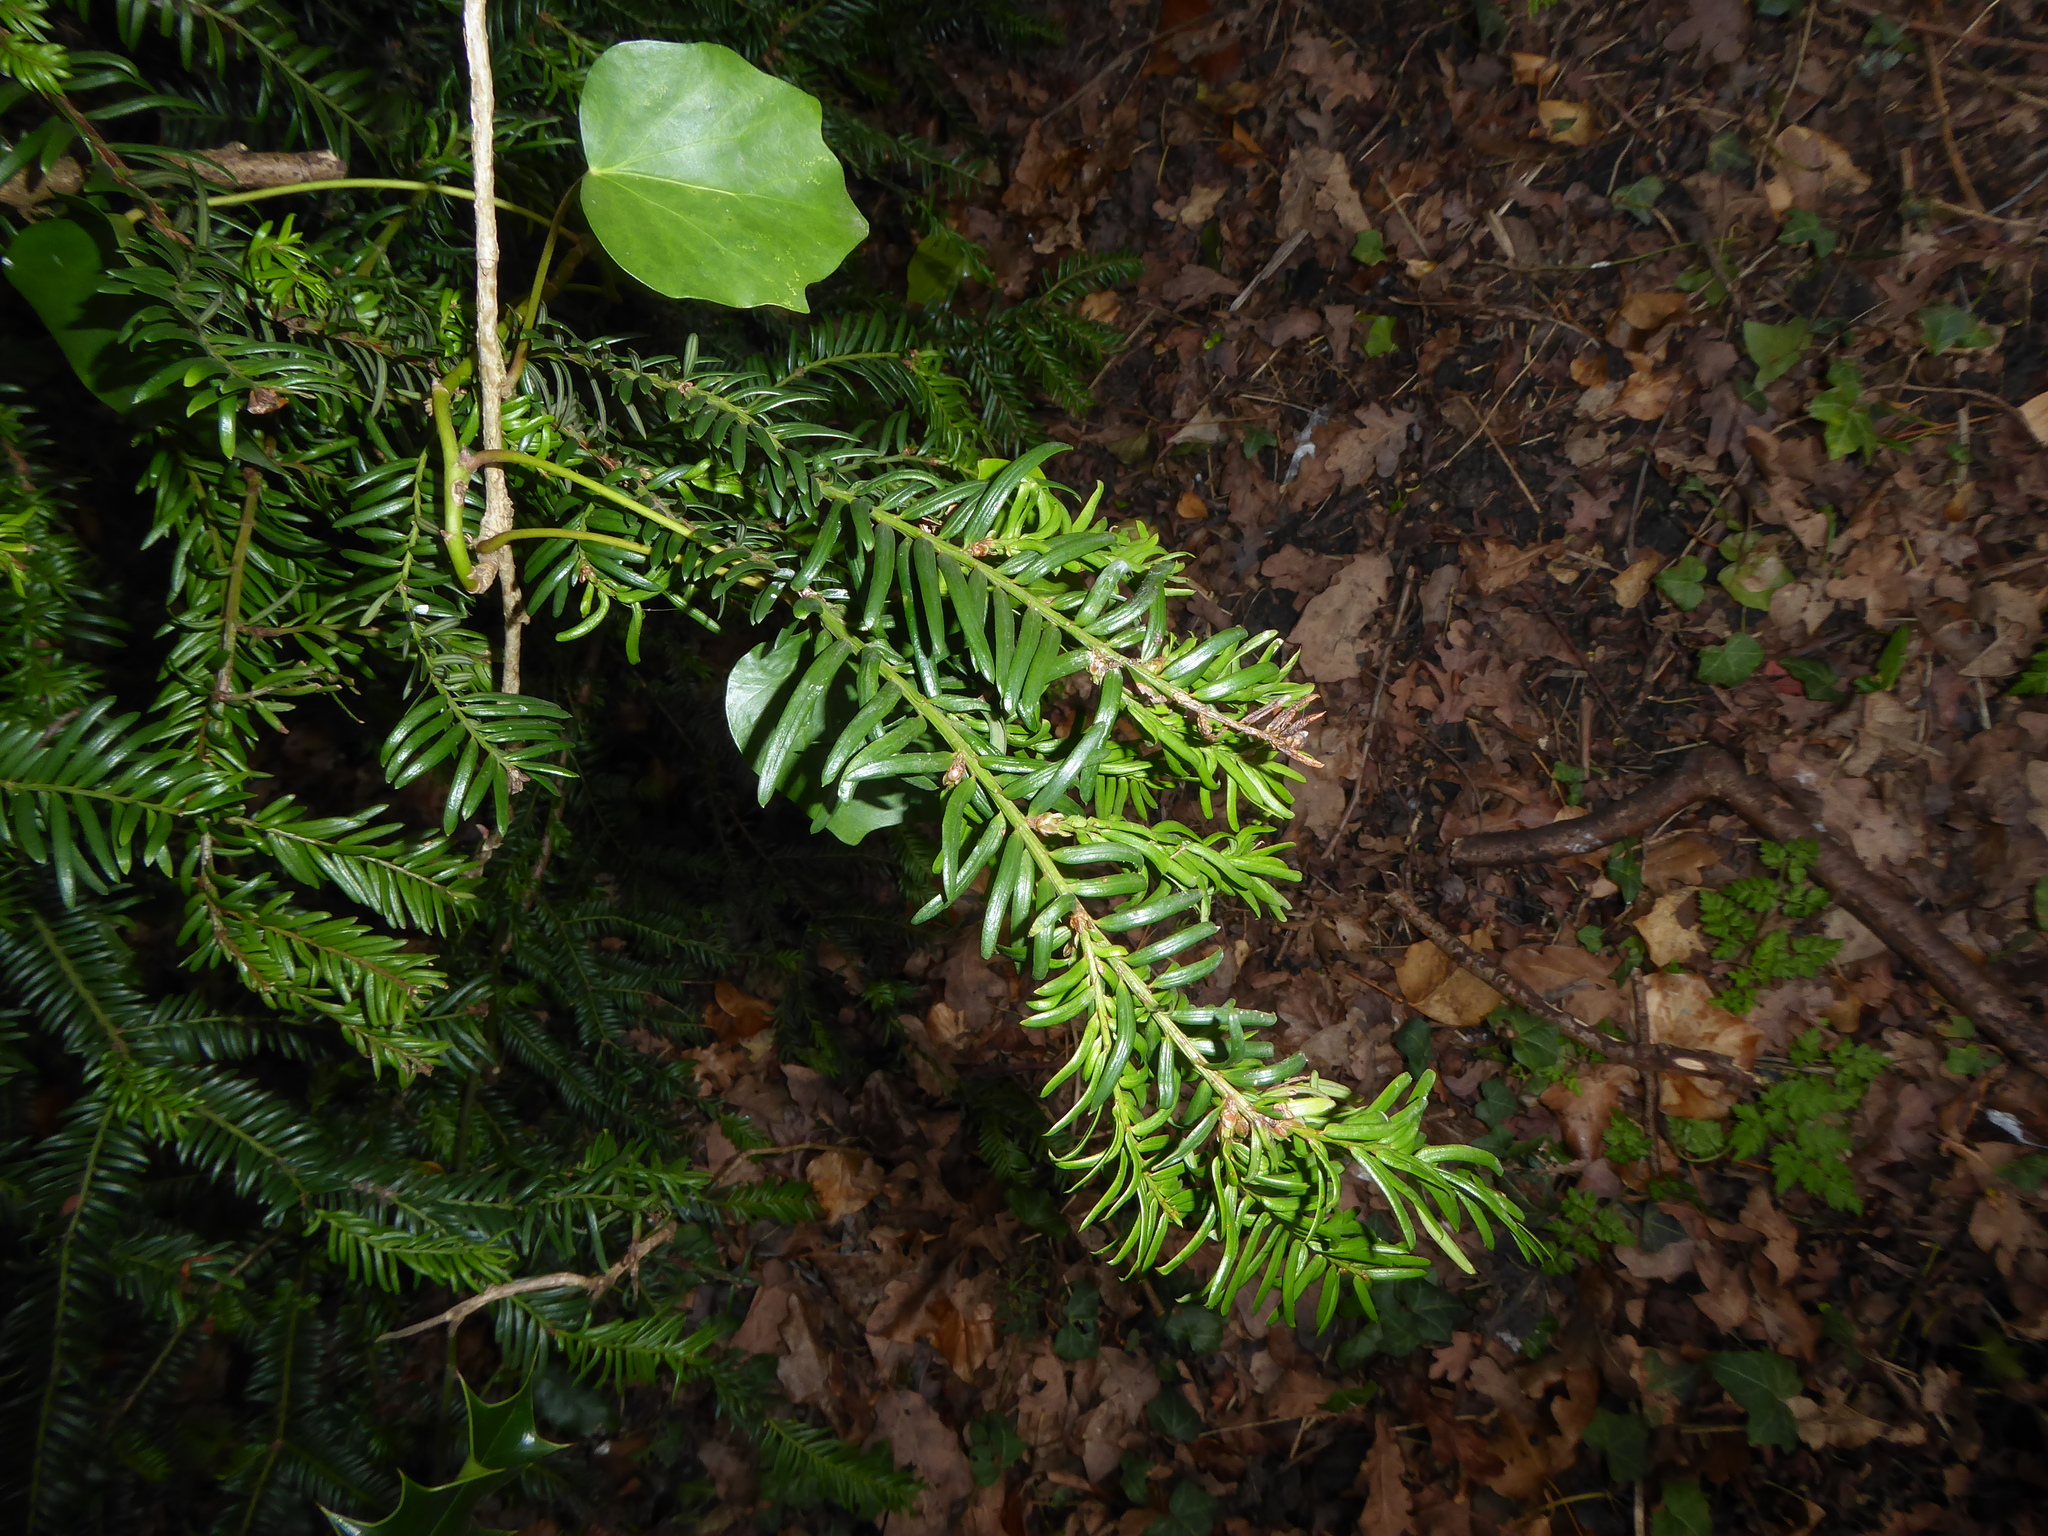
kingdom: Plantae
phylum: Tracheophyta
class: Pinopsida
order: Pinales
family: Taxaceae
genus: Taxus
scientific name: Taxus baccata
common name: Yew
